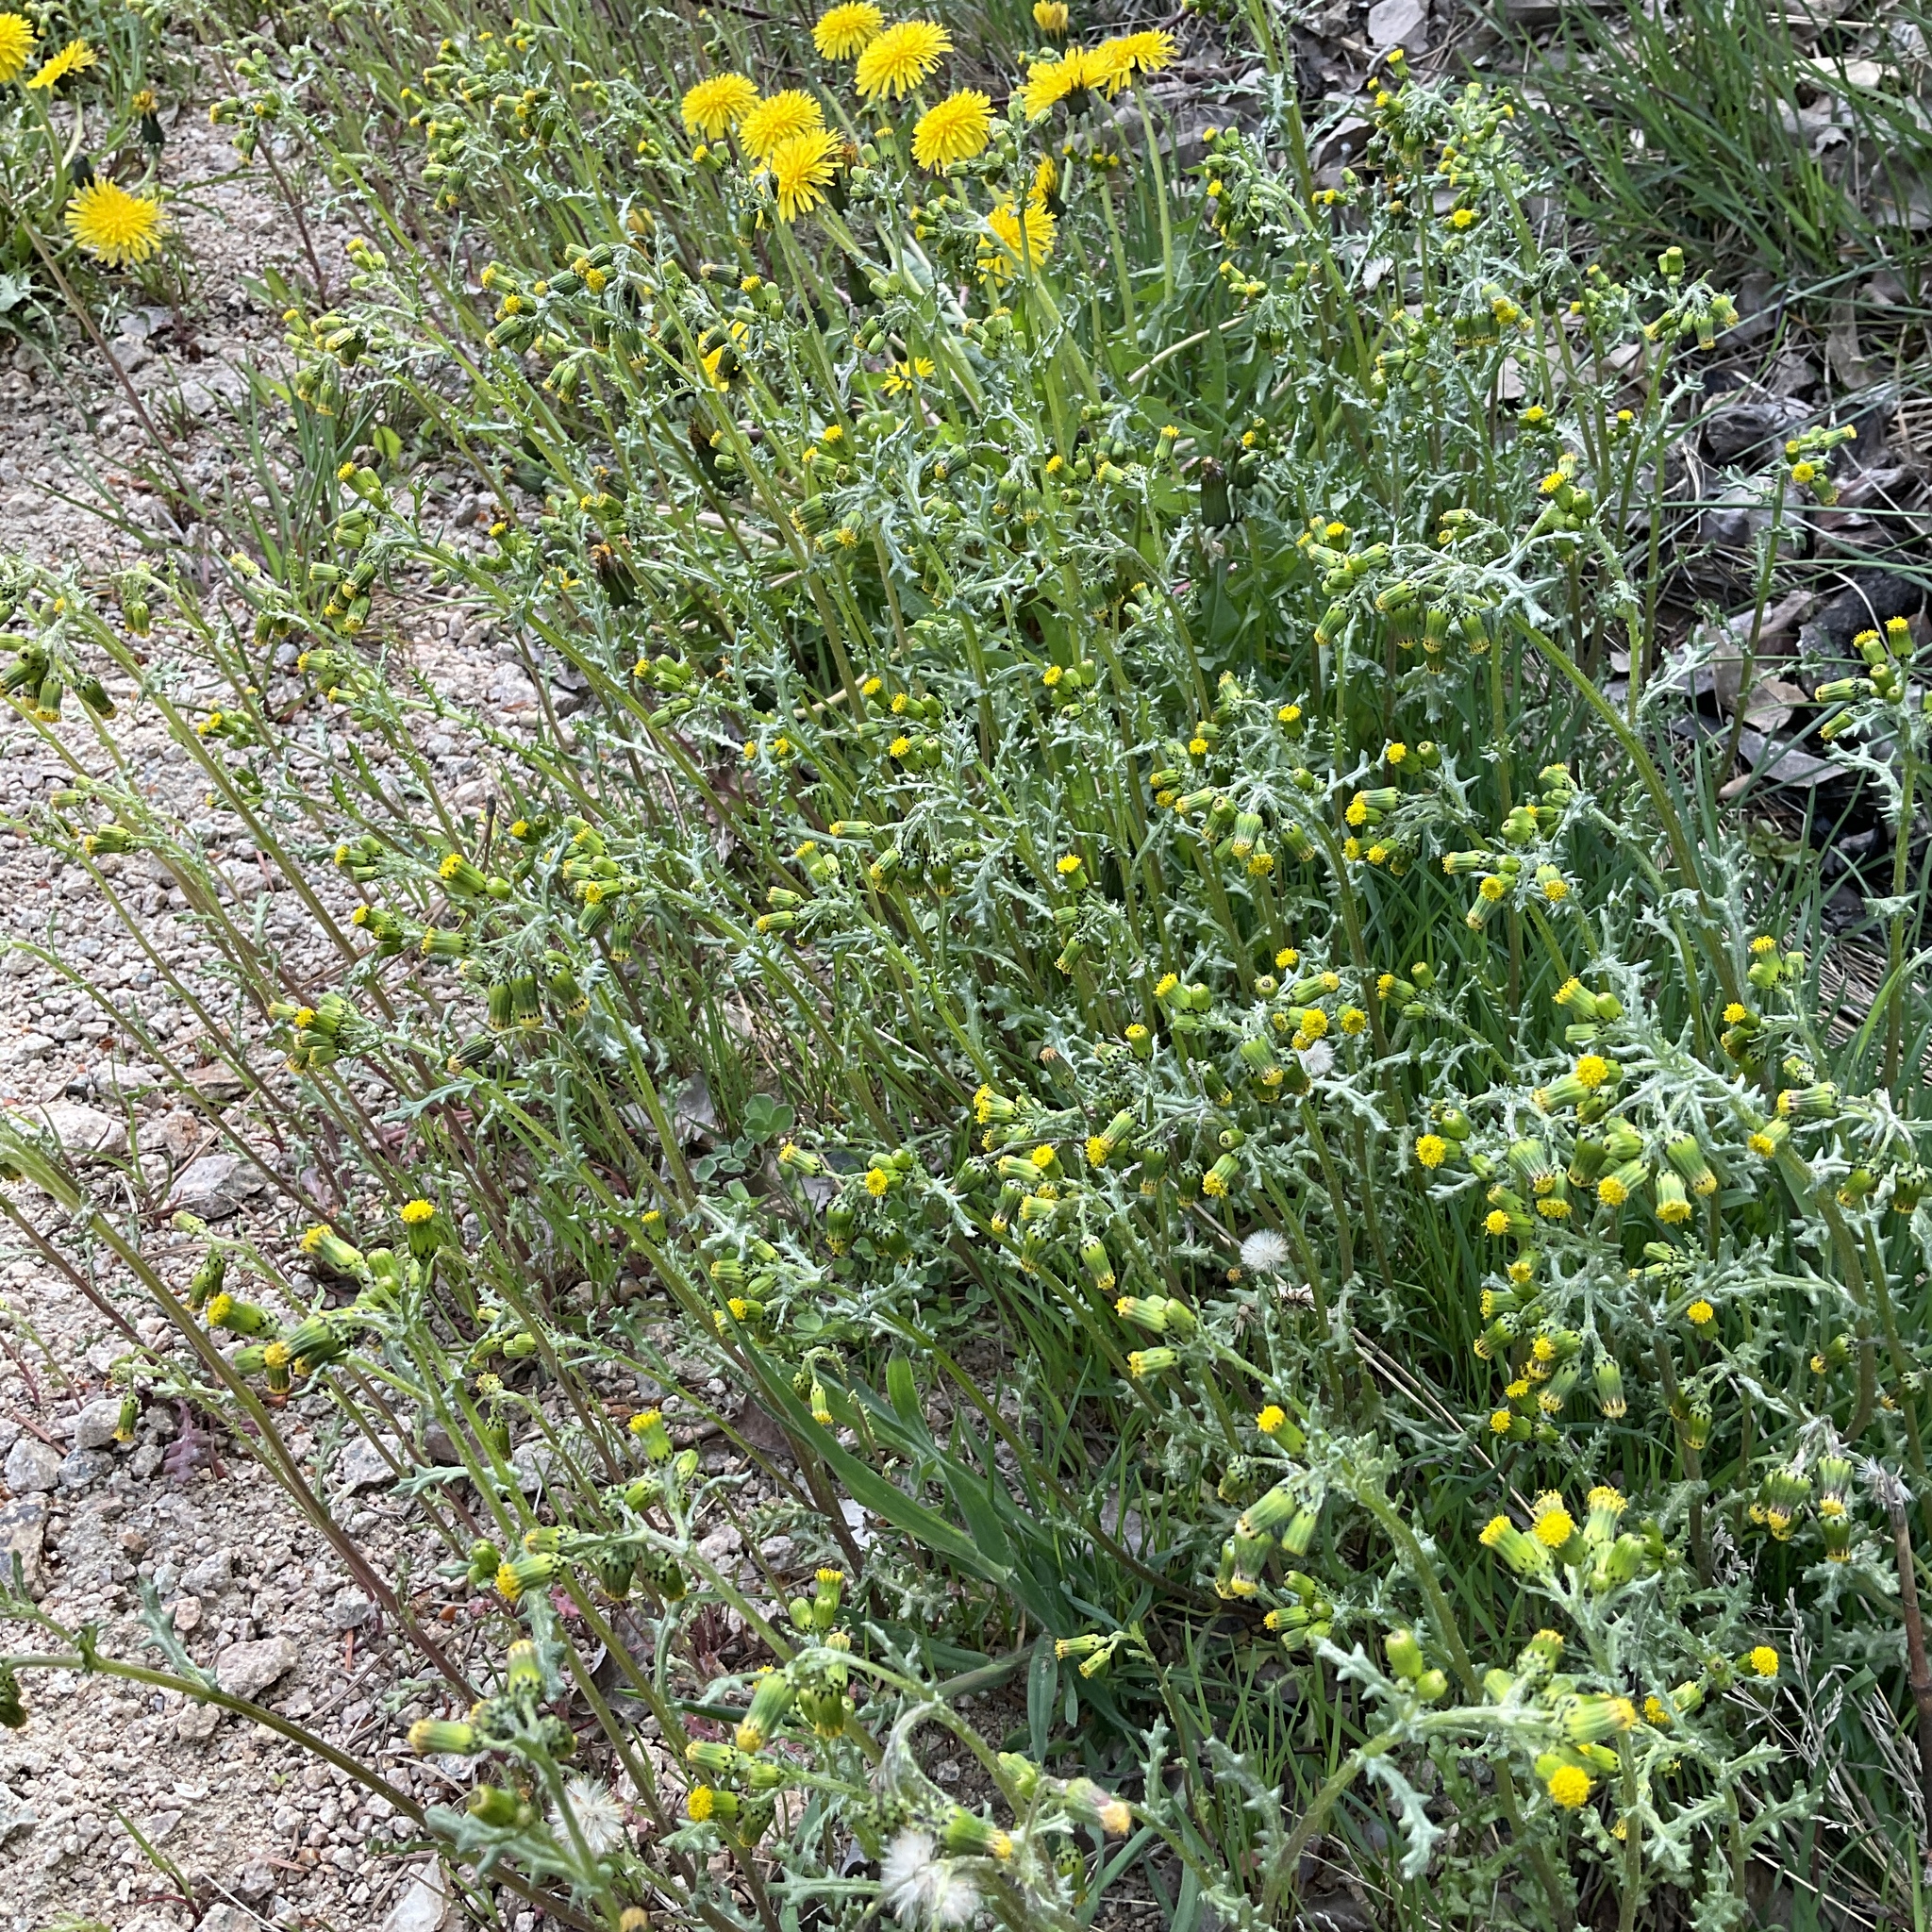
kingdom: Plantae
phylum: Tracheophyta
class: Magnoliopsida
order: Asterales
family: Asteraceae
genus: Senecio
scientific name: Senecio vulgaris
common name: Old-man-in-the-spring
